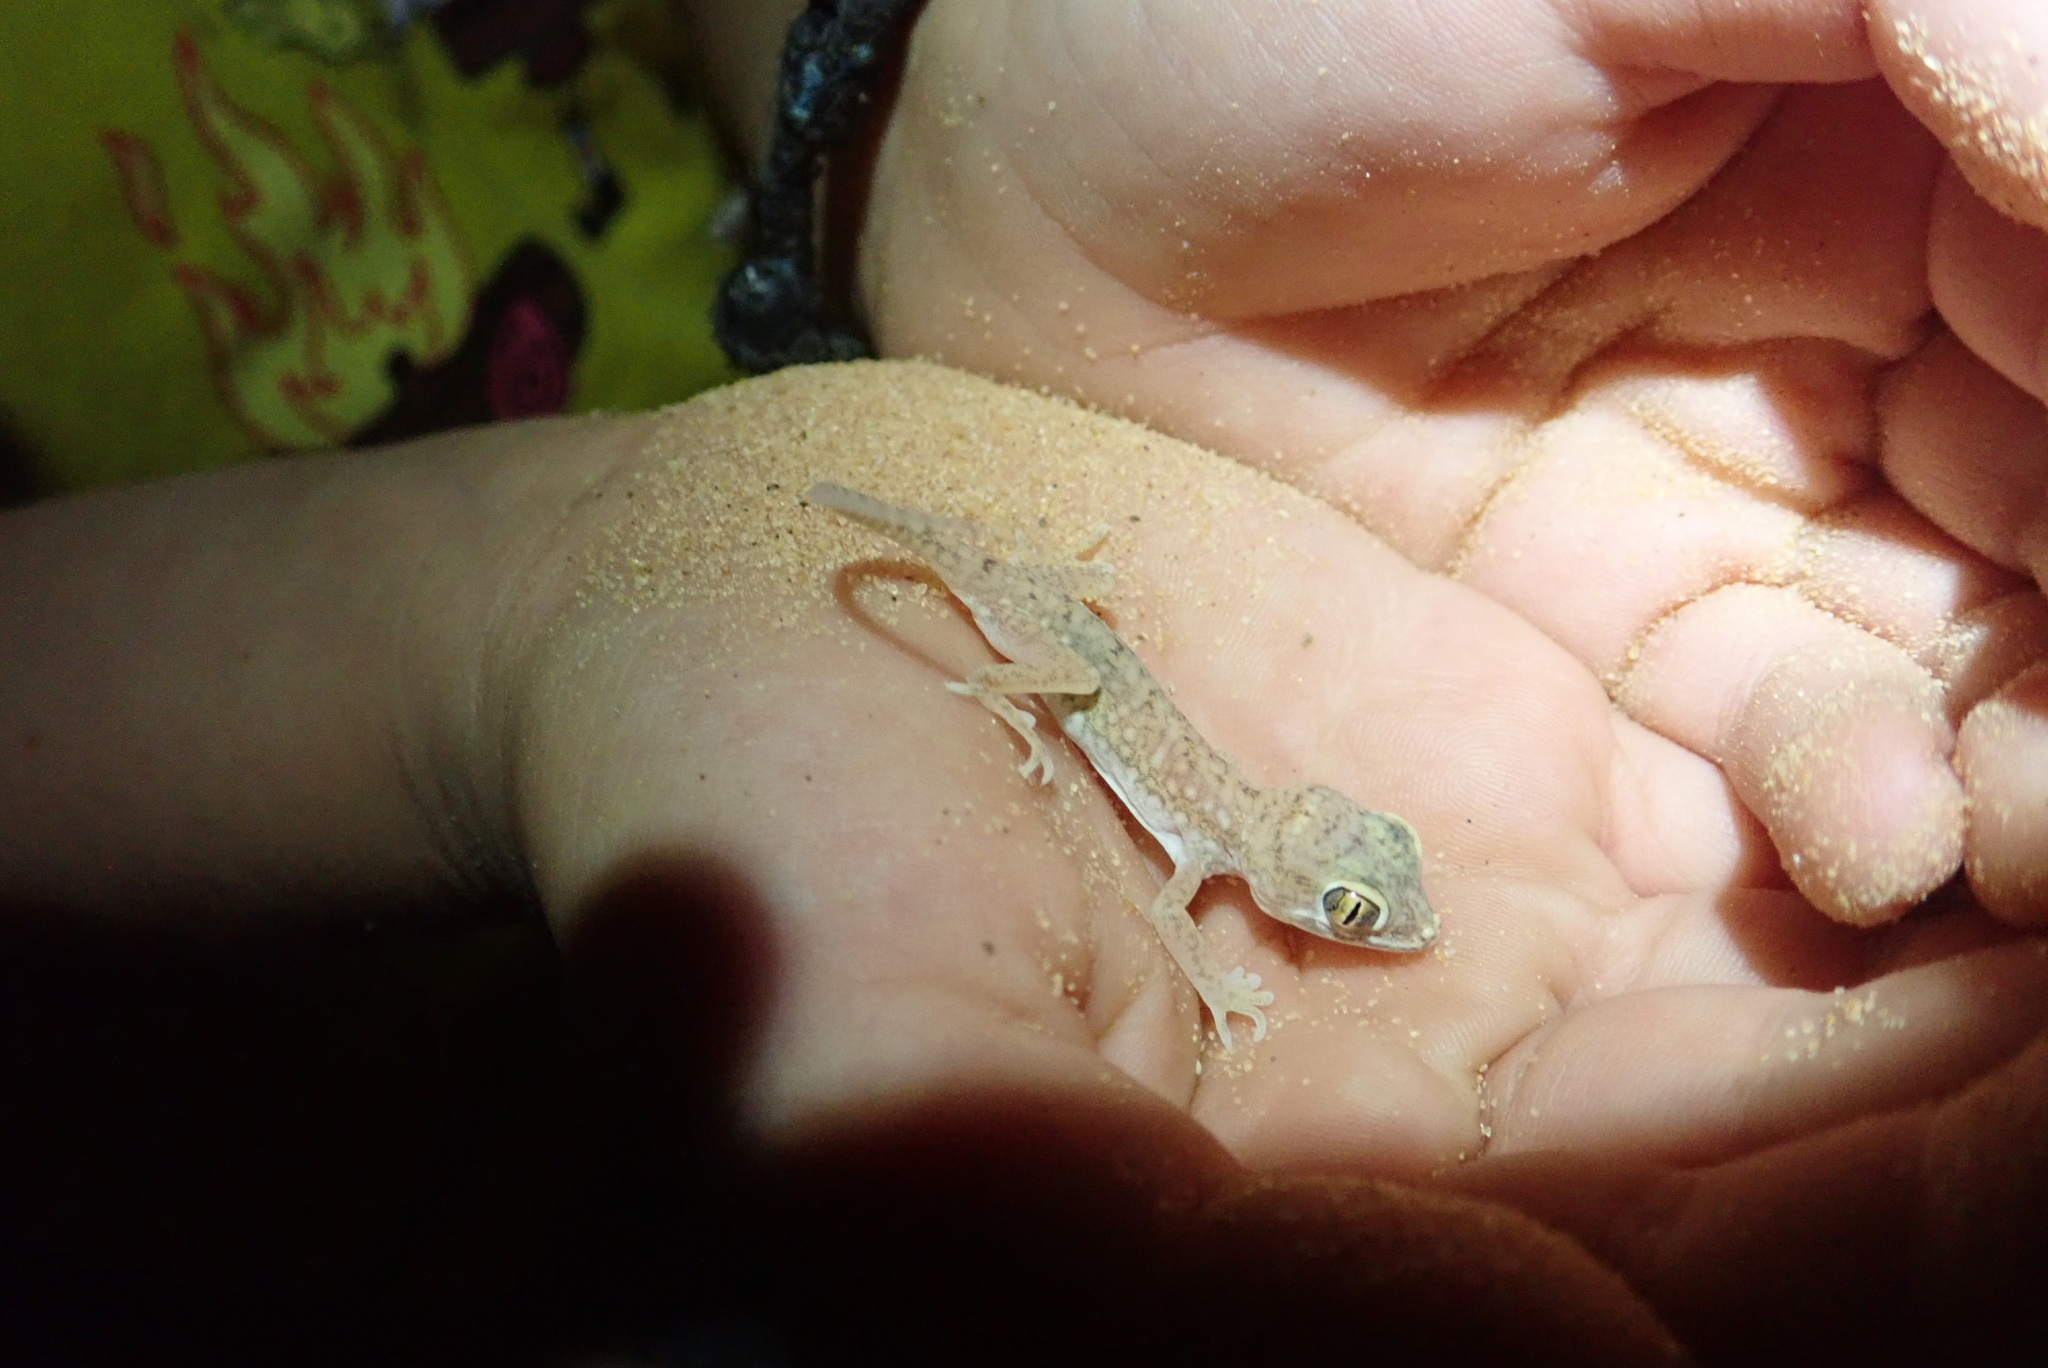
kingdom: Animalia
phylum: Chordata
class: Squamata
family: Gekkonidae
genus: Stenodactylus
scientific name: Stenodactylus petrii
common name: Anderson's short-fingered gecko
